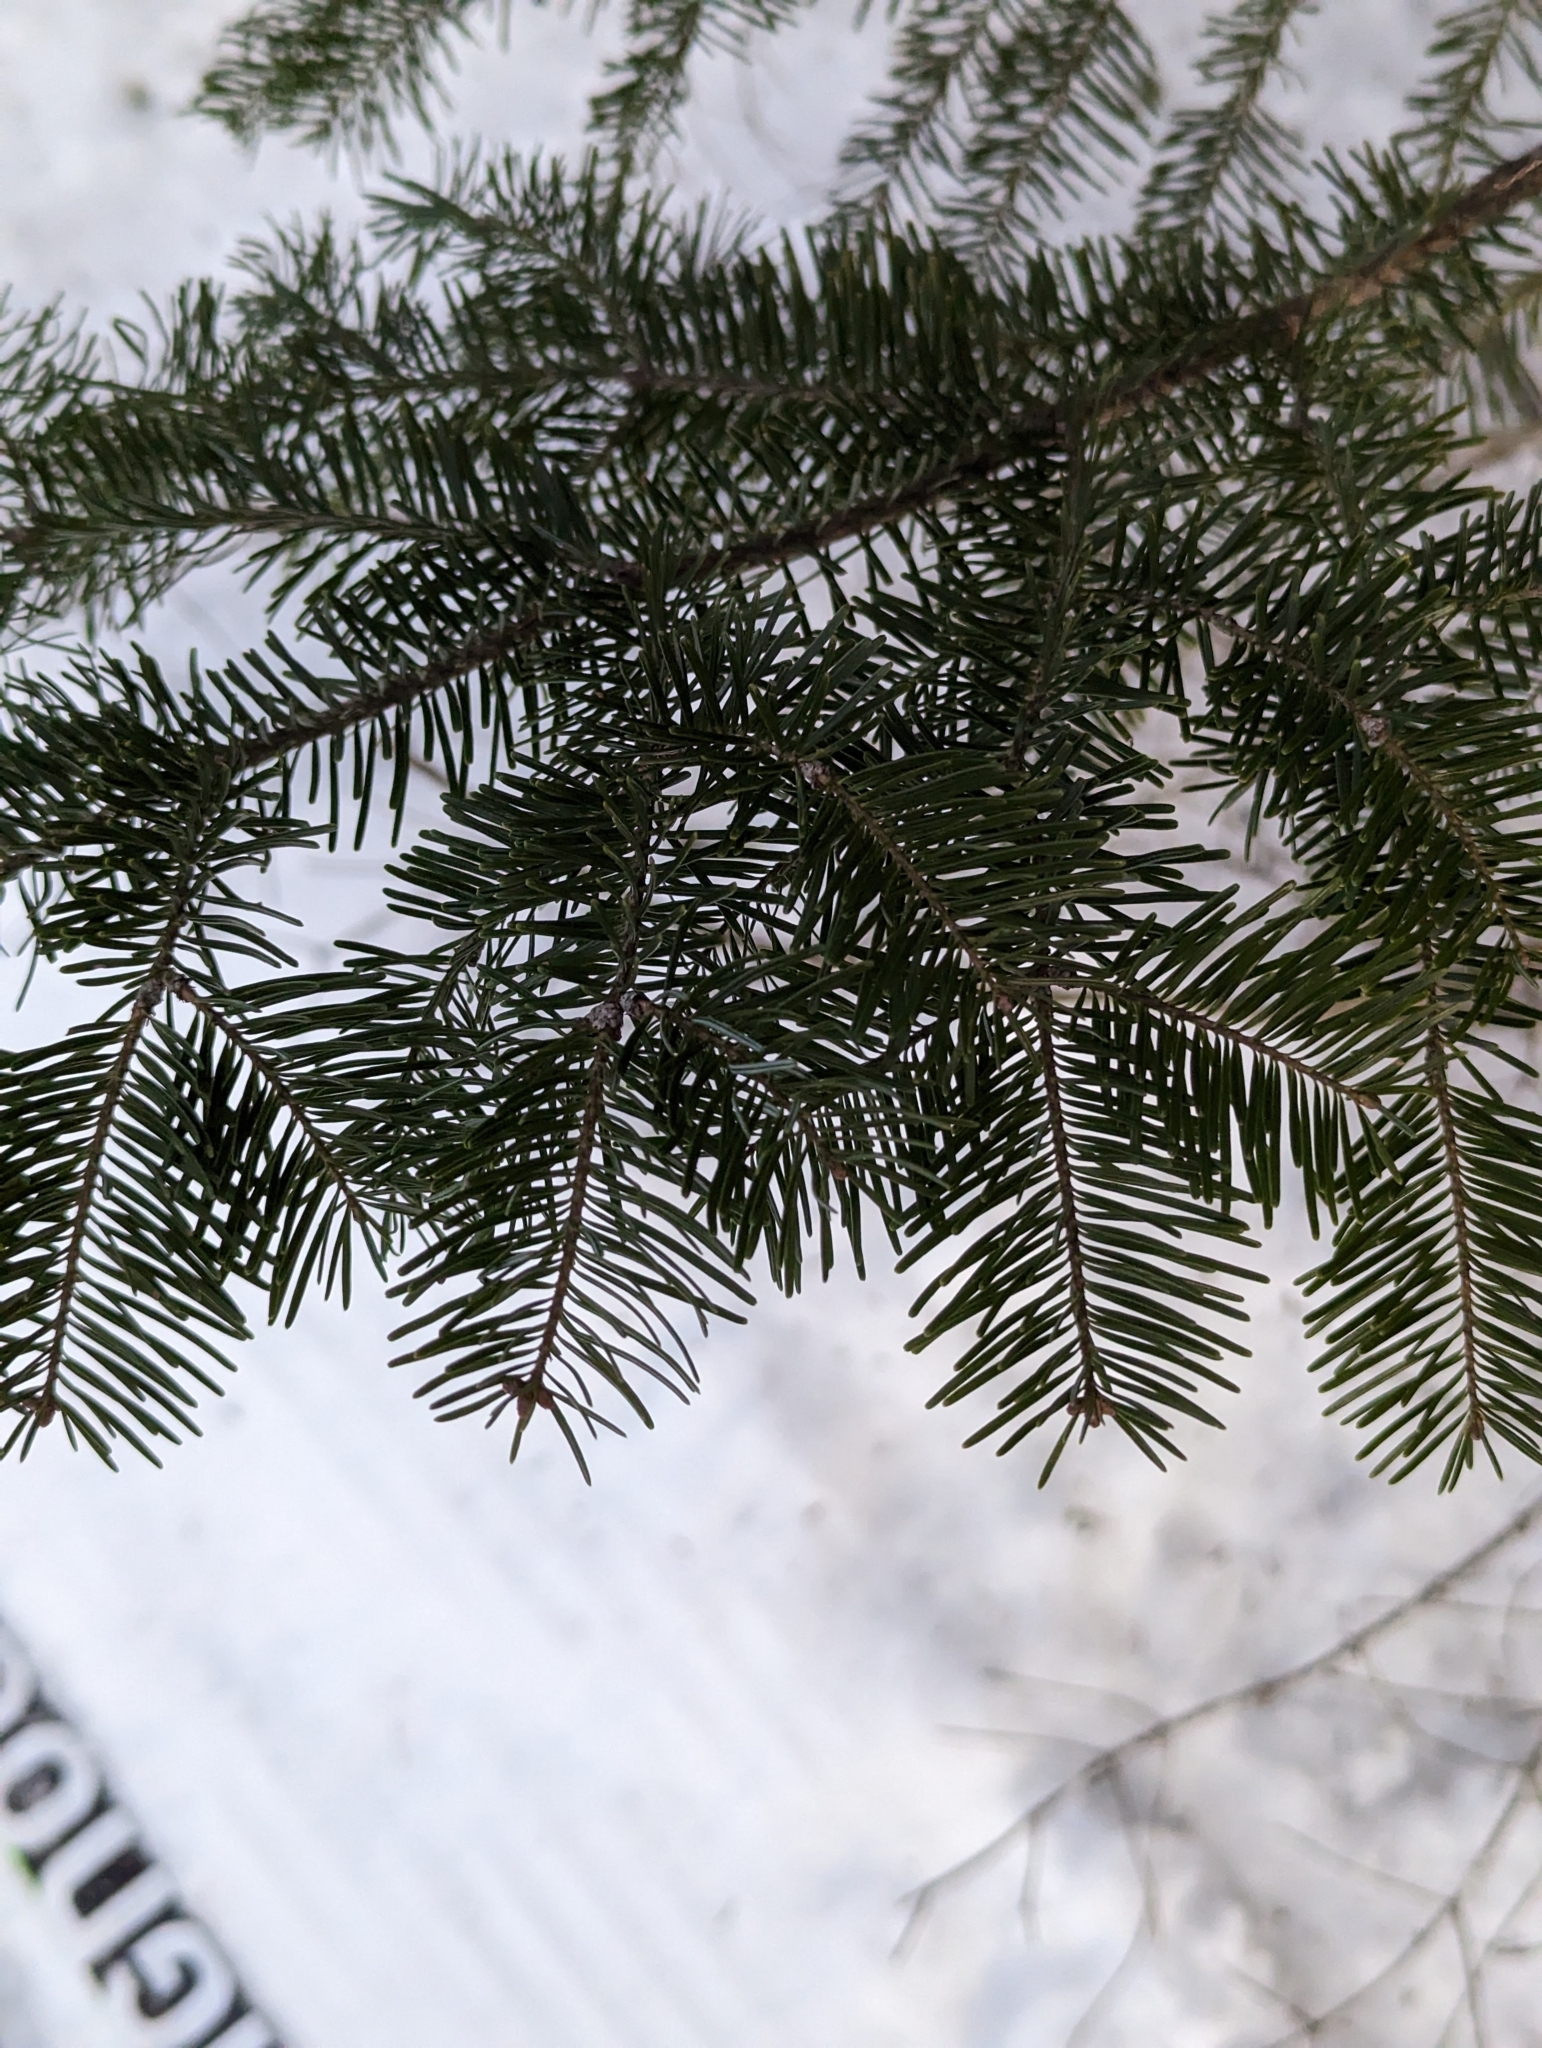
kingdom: Plantae
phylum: Tracheophyta
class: Pinopsida
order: Pinales
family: Pinaceae
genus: Abies
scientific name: Abies balsamea
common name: Balsam fir
